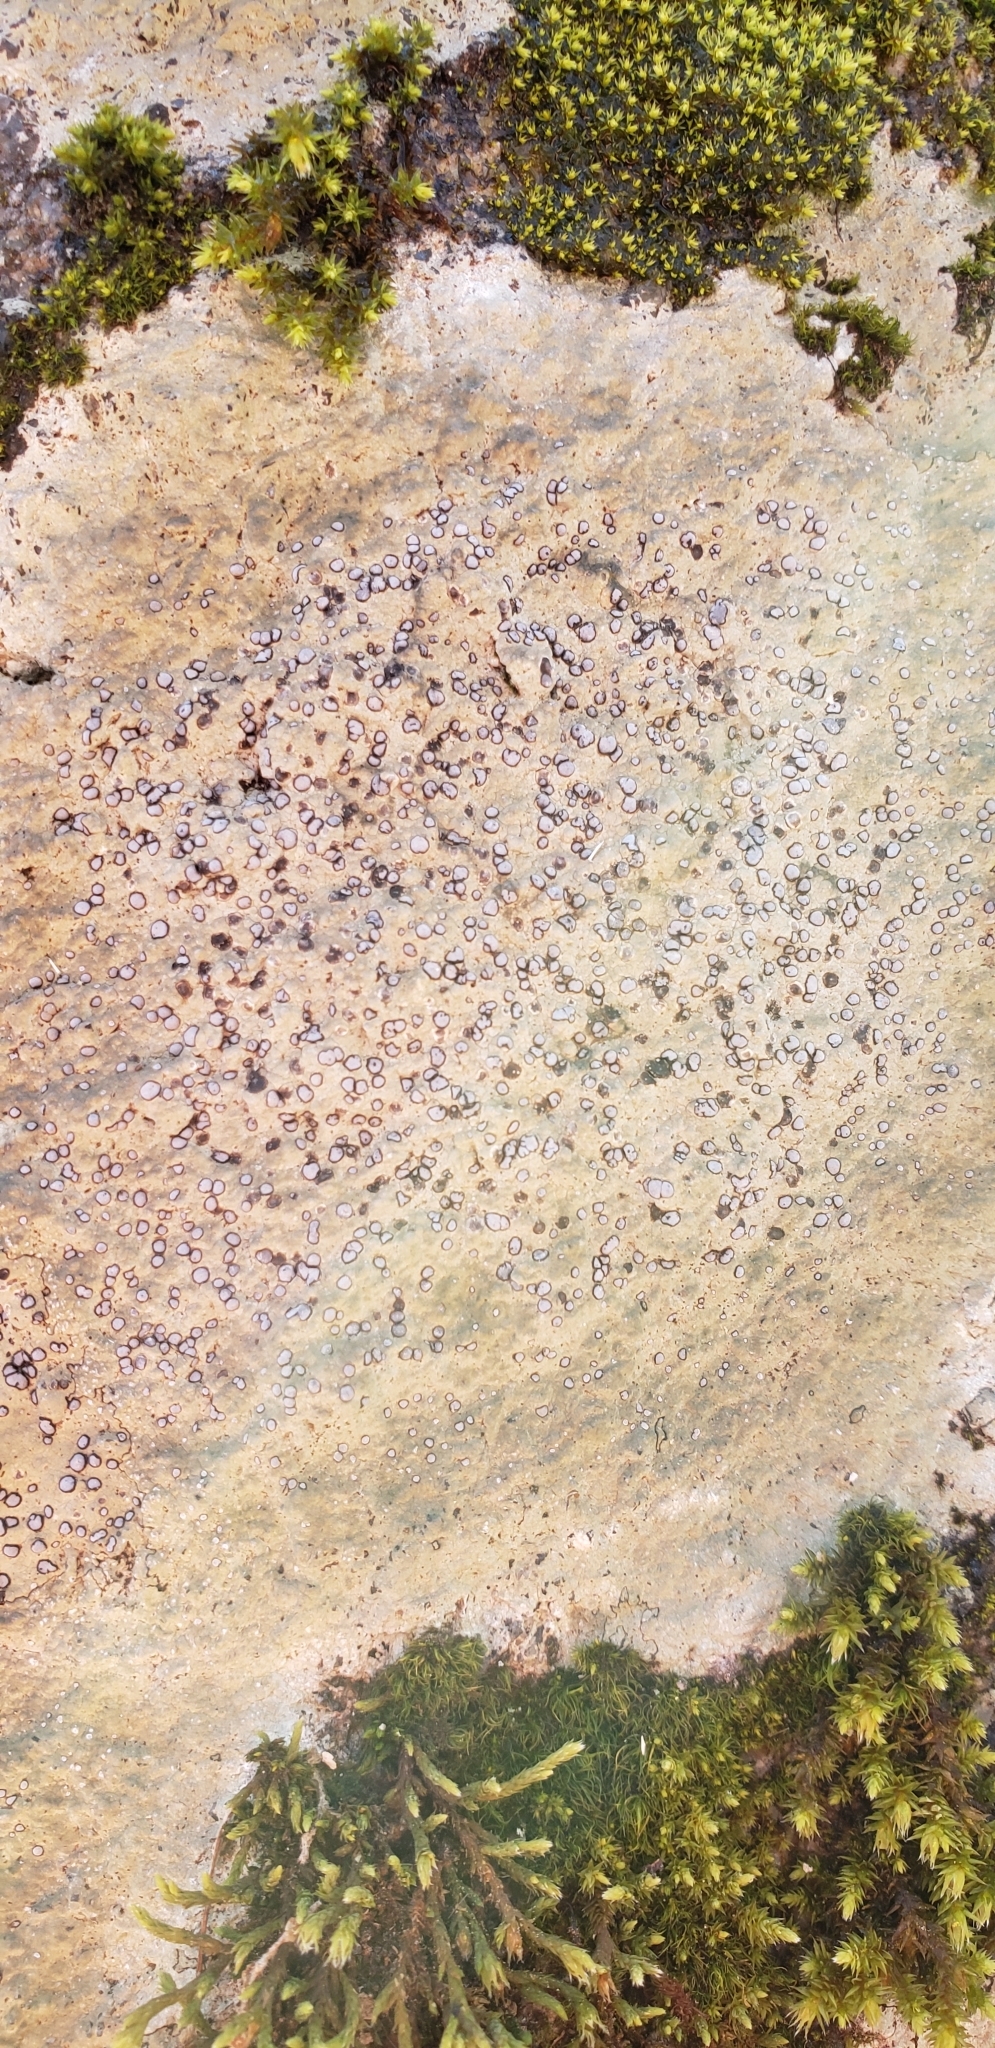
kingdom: Fungi
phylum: Ascomycota
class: Lecanoromycetes
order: Lecideales
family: Lecideaceae
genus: Porpidia
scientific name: Porpidia albocaerulescens
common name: Smokey-eyed boulder lichen
